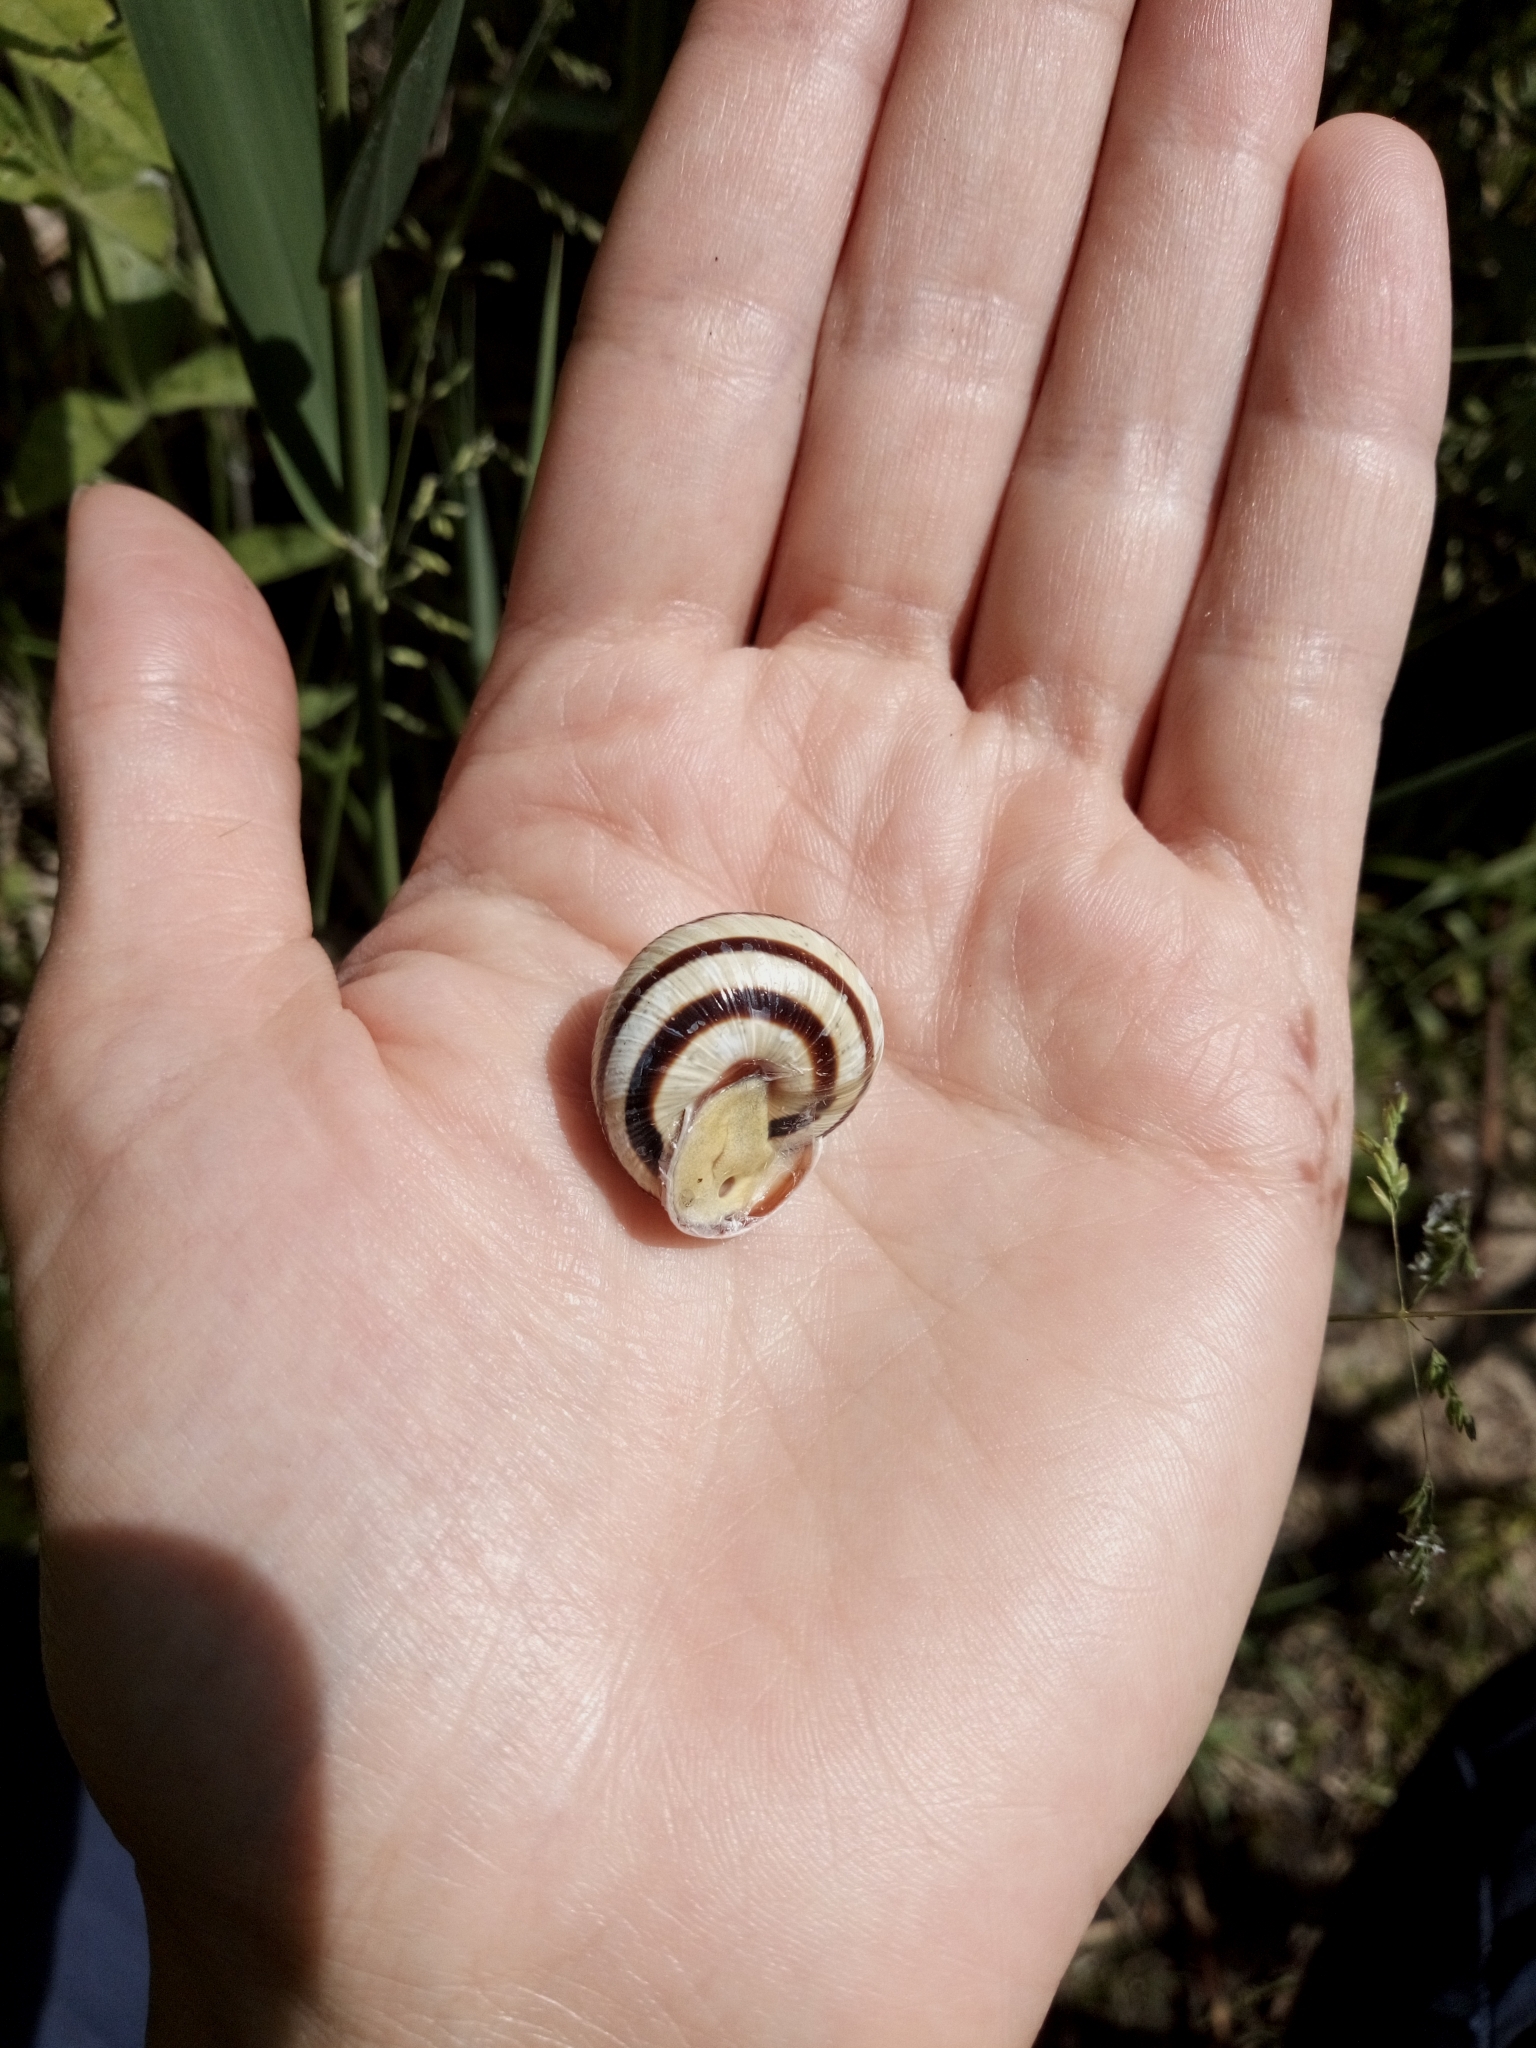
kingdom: Animalia
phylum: Mollusca
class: Gastropoda
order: Stylommatophora
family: Helicidae
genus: Caucasotachea
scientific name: Caucasotachea vindobonensis
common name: European helicid land snail
